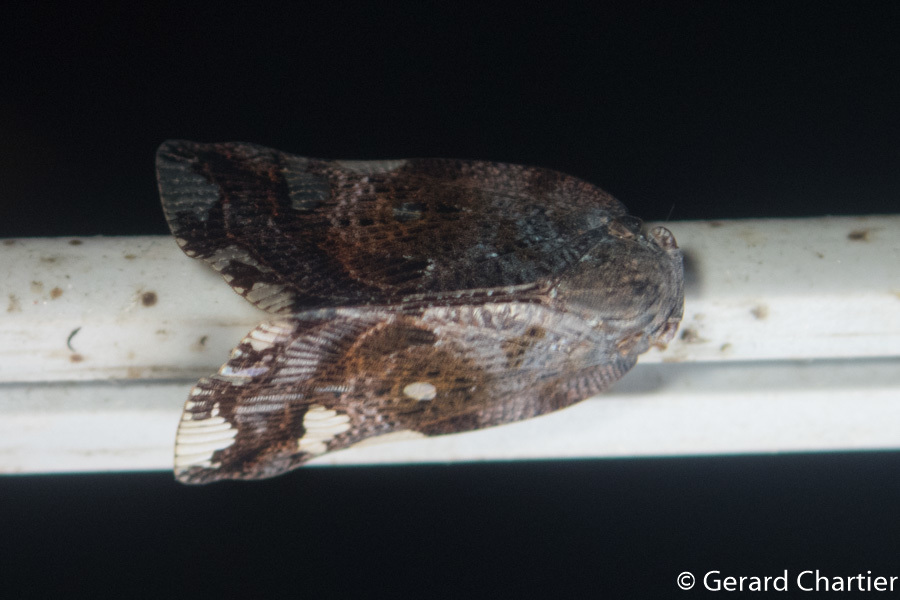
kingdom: Animalia
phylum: Arthropoda
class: Insecta
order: Hemiptera
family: Ricaniidae
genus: Ricania
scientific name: Ricania speculum
